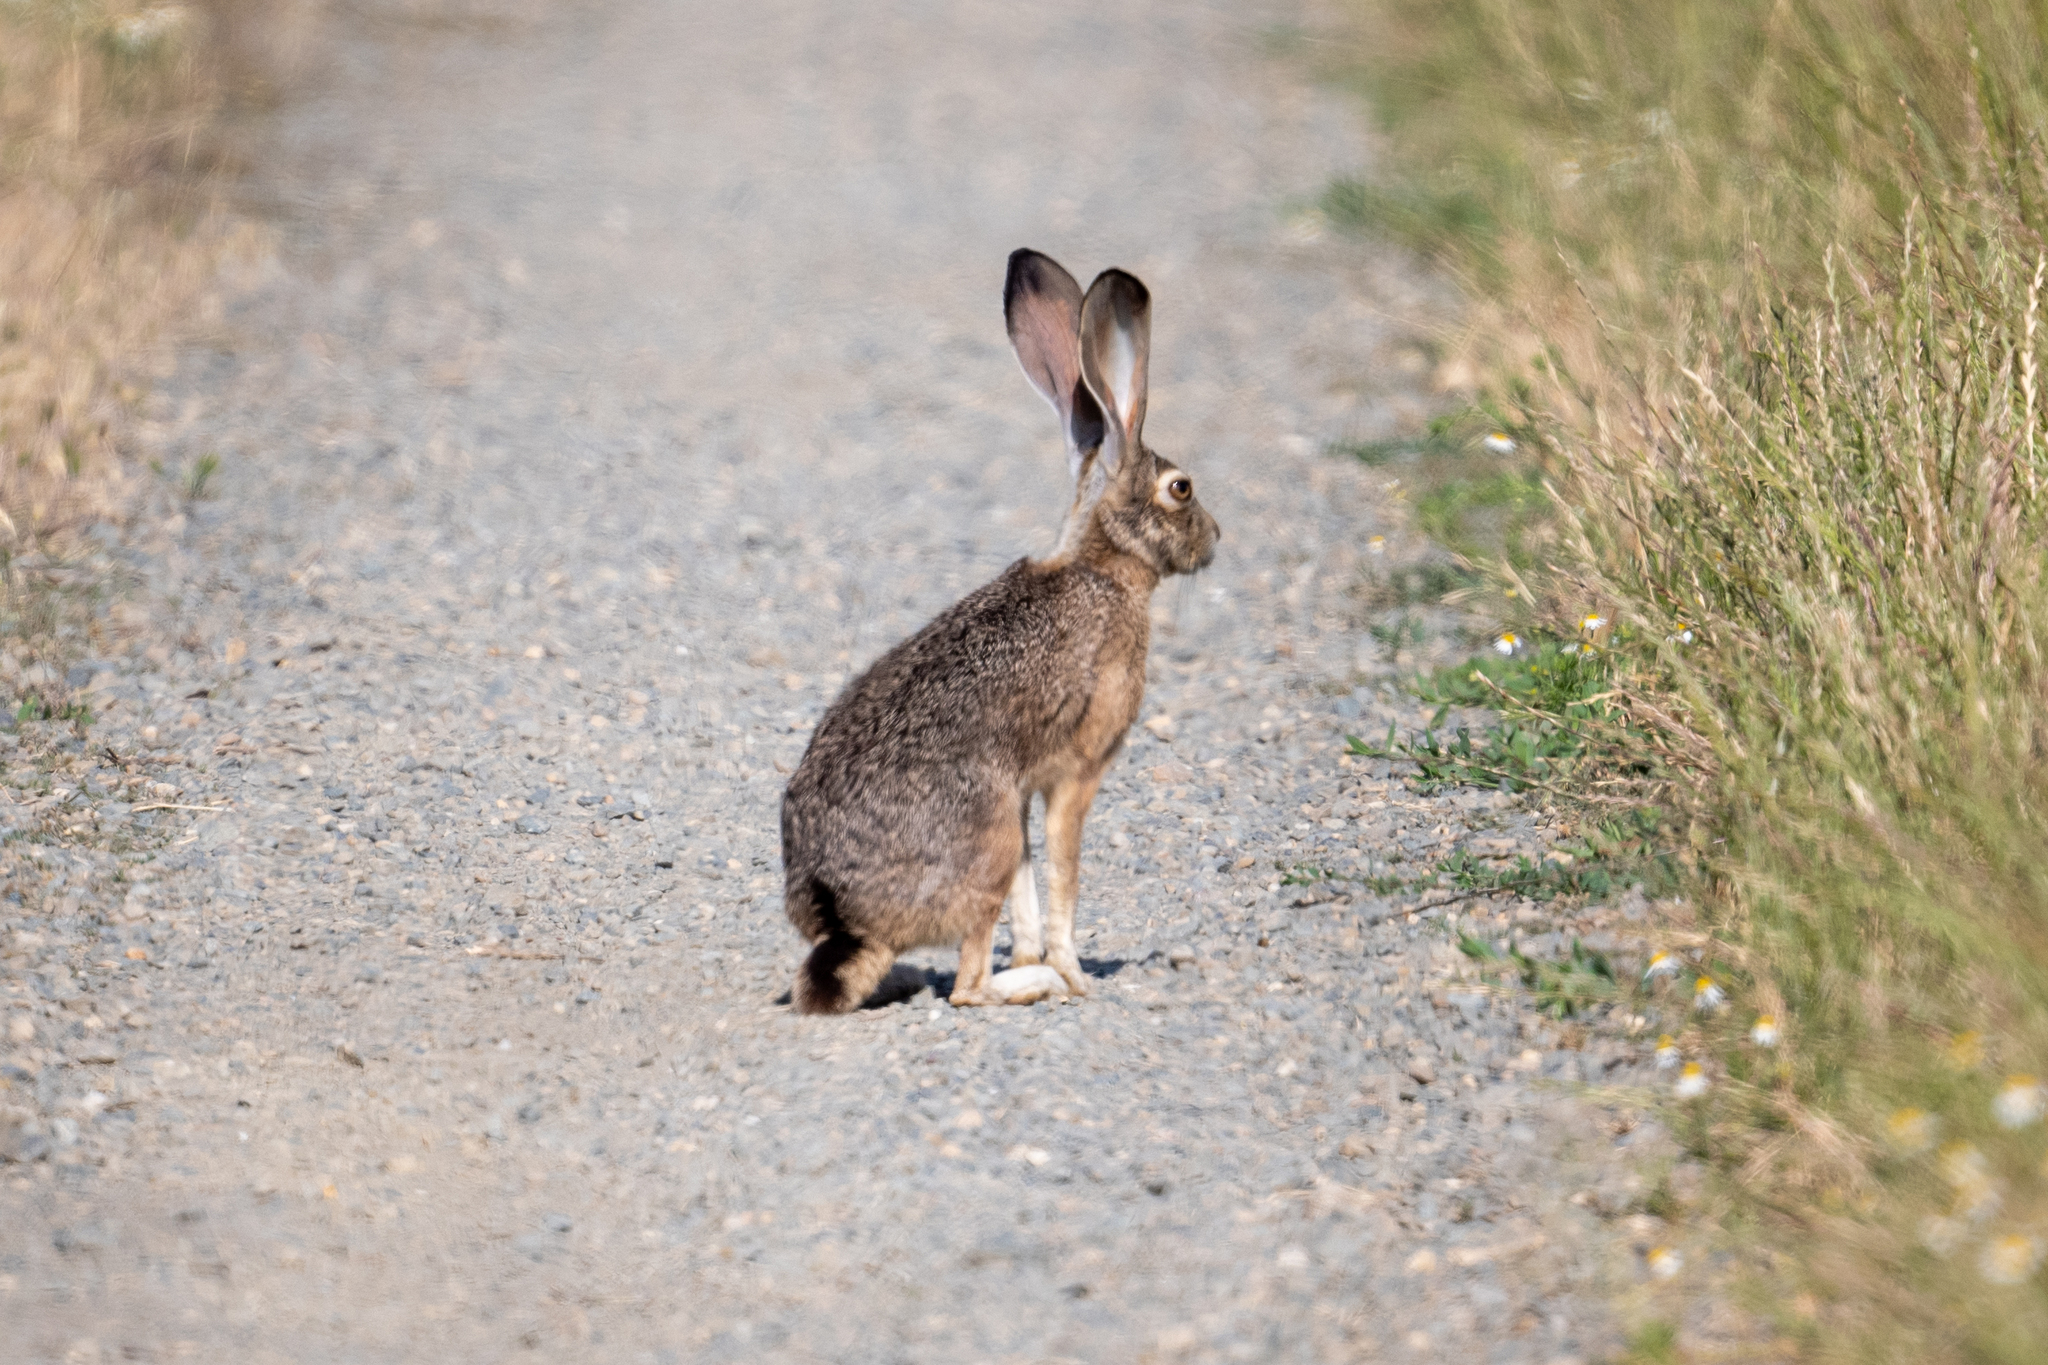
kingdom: Animalia
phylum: Chordata
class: Mammalia
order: Lagomorpha
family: Leporidae
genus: Lepus
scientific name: Lepus californicus
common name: Black-tailed jackrabbit
